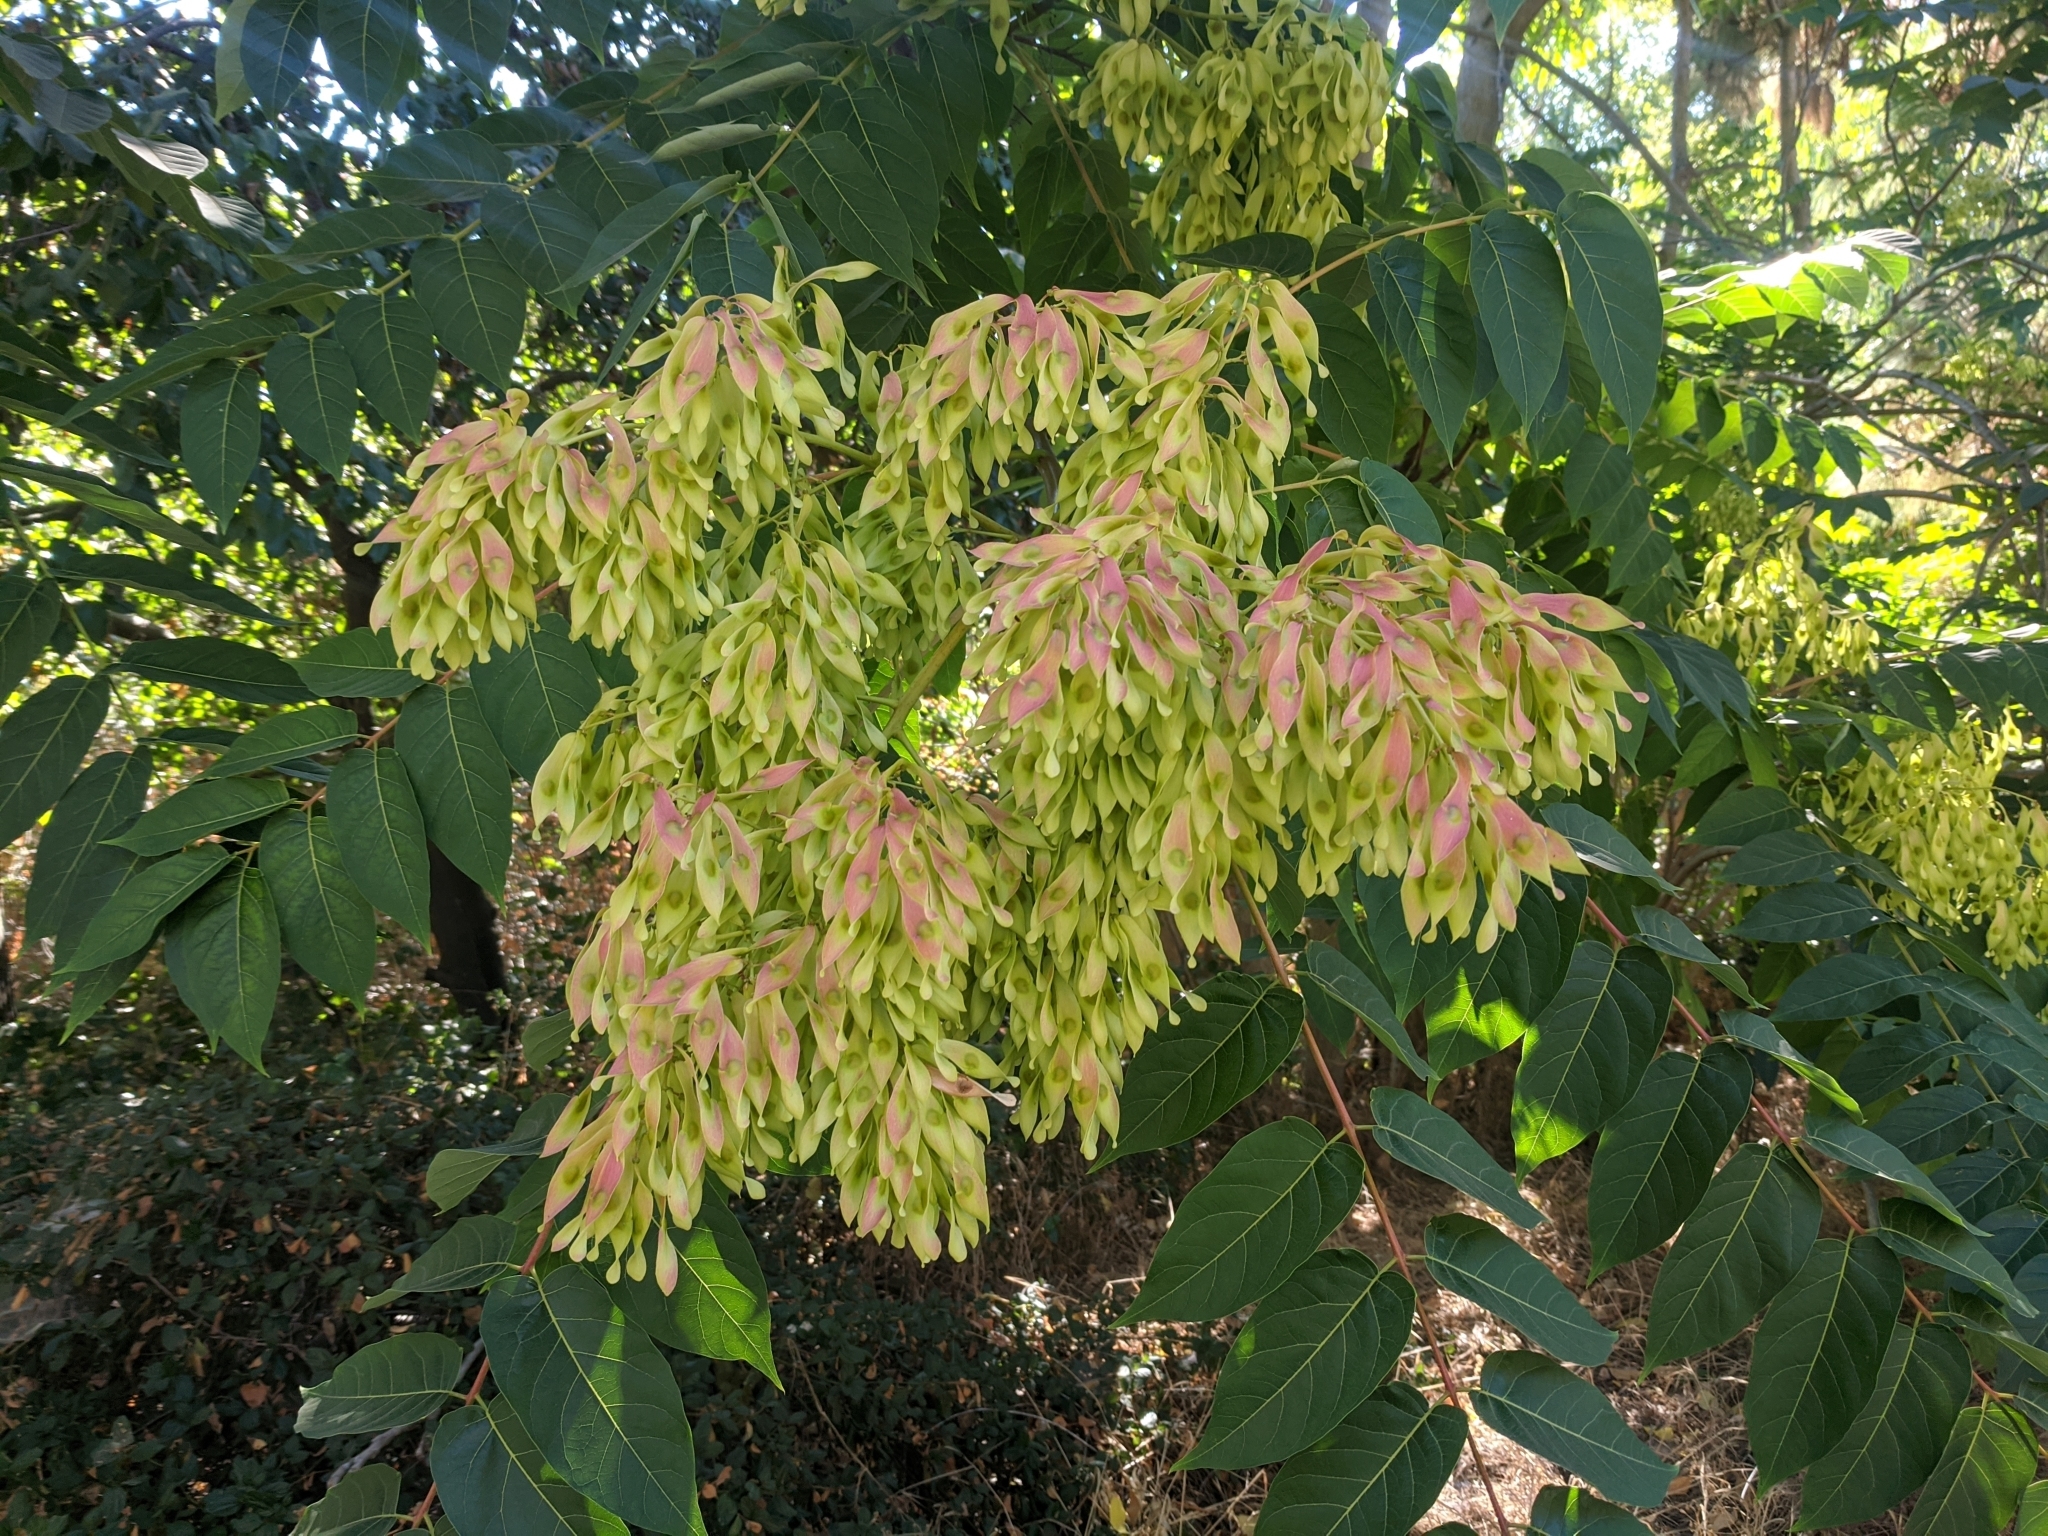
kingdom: Plantae
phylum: Tracheophyta
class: Magnoliopsida
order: Sapindales
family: Simaroubaceae
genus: Ailanthus
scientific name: Ailanthus altissima
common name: Tree-of-heaven
